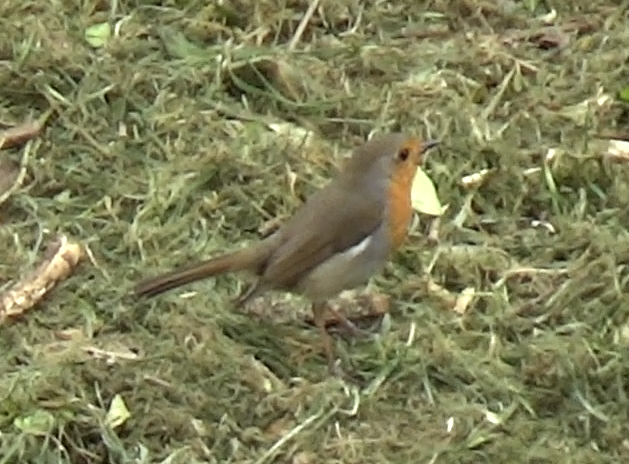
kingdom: Animalia
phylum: Chordata
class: Aves
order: Passeriformes
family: Muscicapidae
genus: Erithacus
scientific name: Erithacus rubecula
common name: European robin
